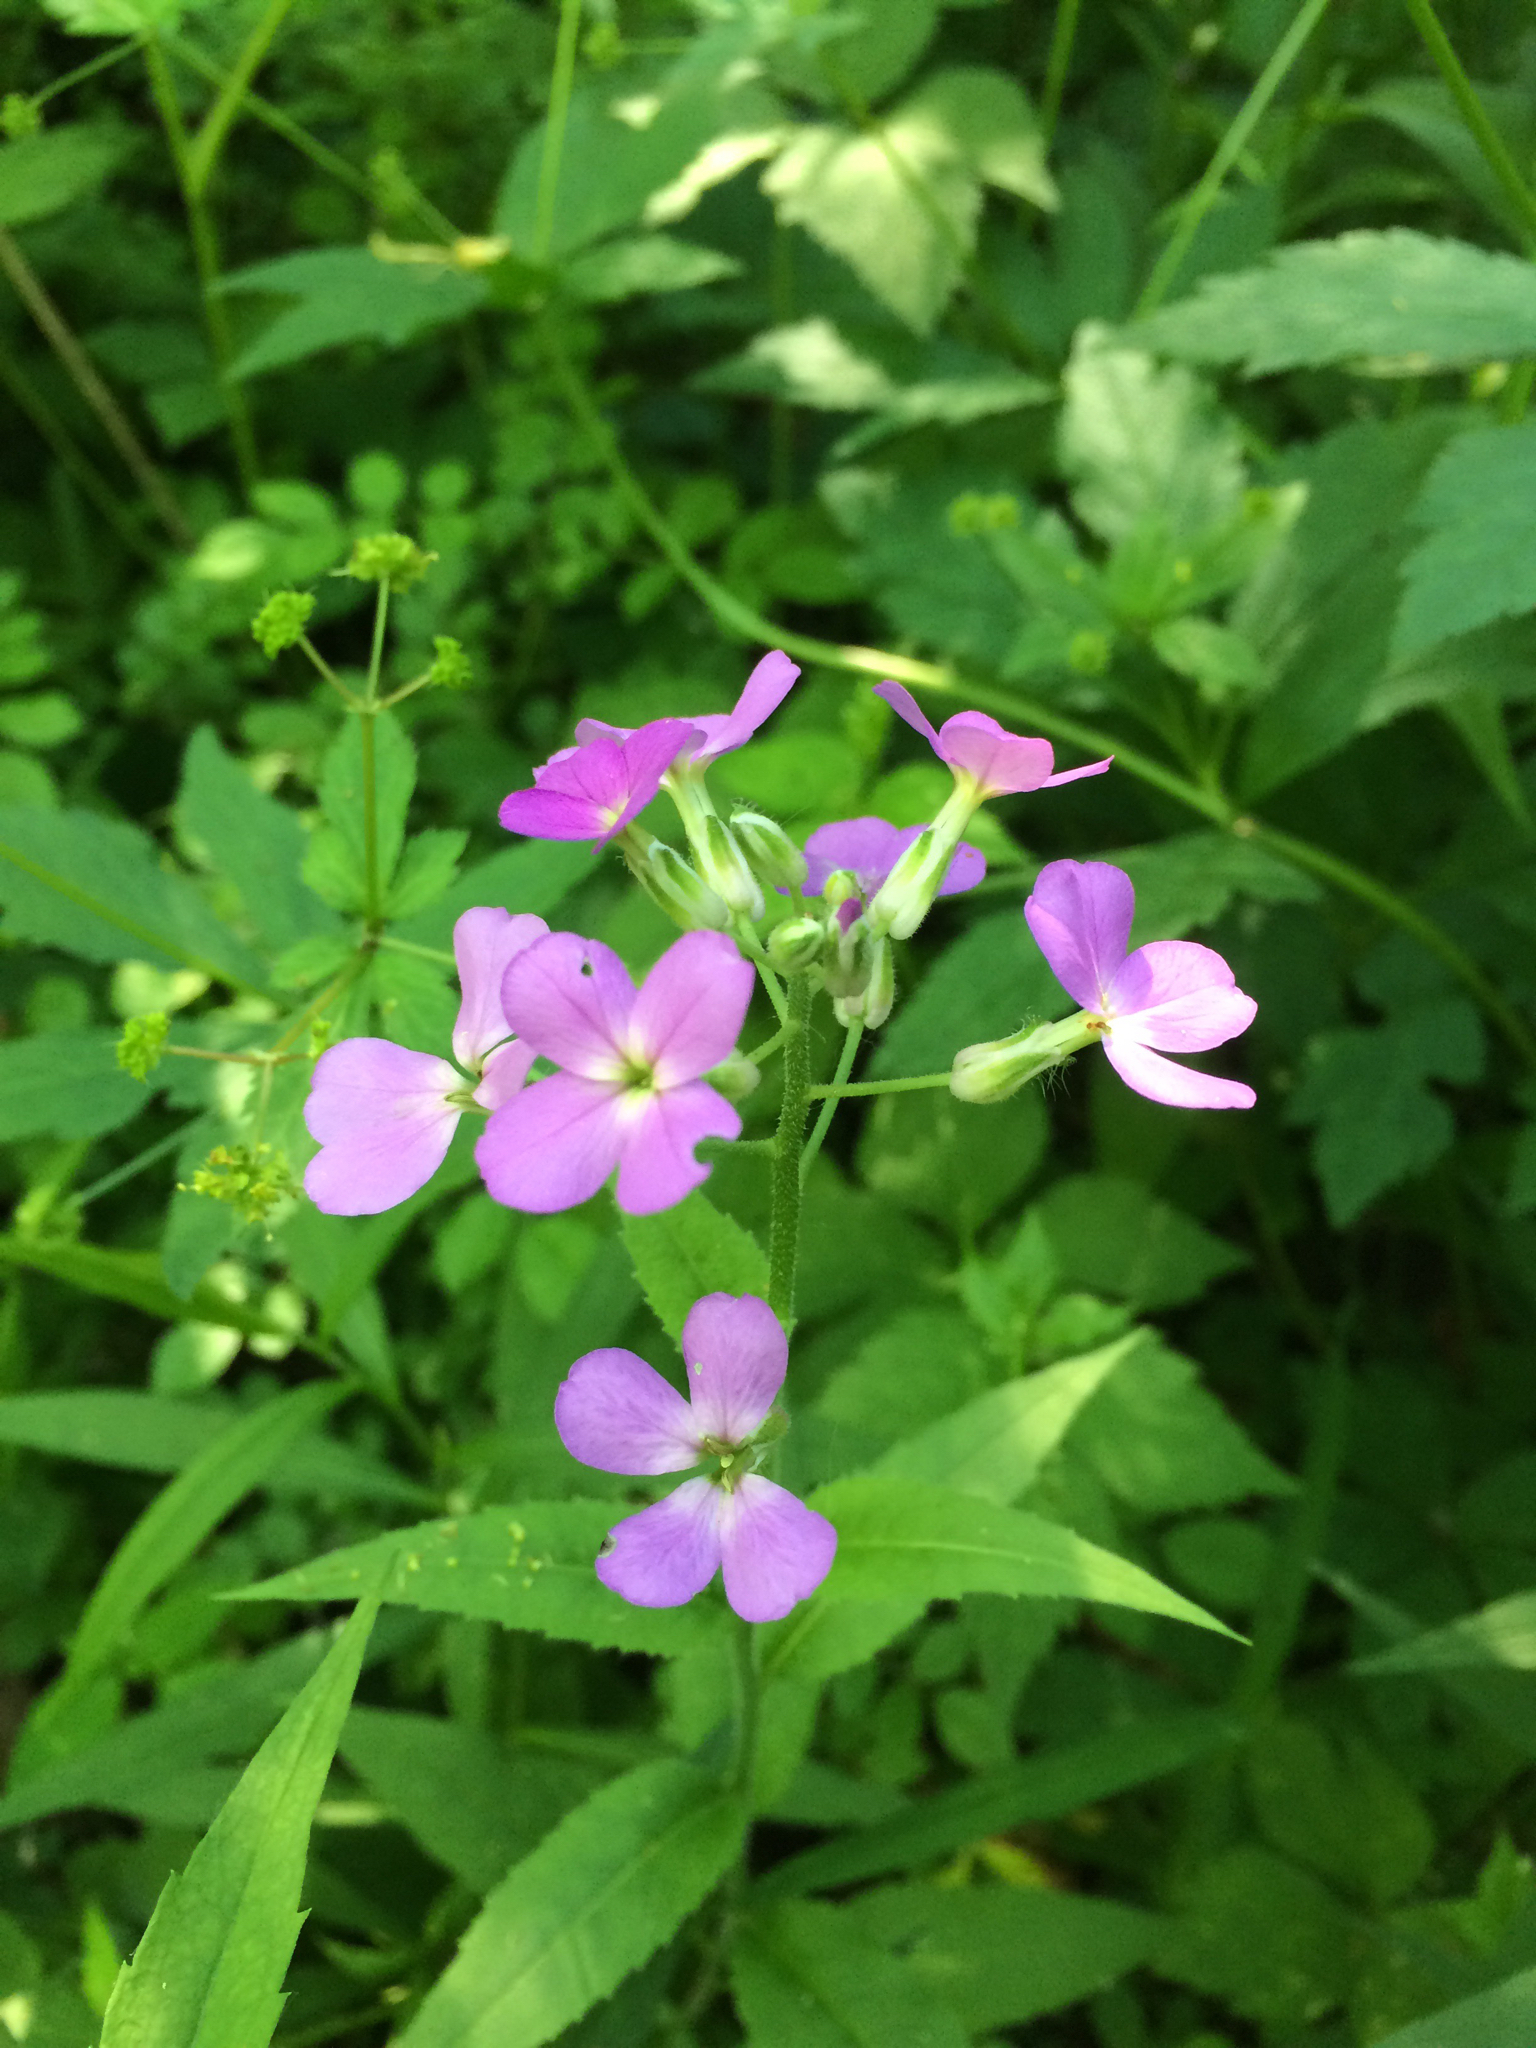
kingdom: Plantae
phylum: Tracheophyta
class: Magnoliopsida
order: Brassicales
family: Brassicaceae
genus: Hesperis
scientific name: Hesperis matronalis
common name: Dame's-violet
